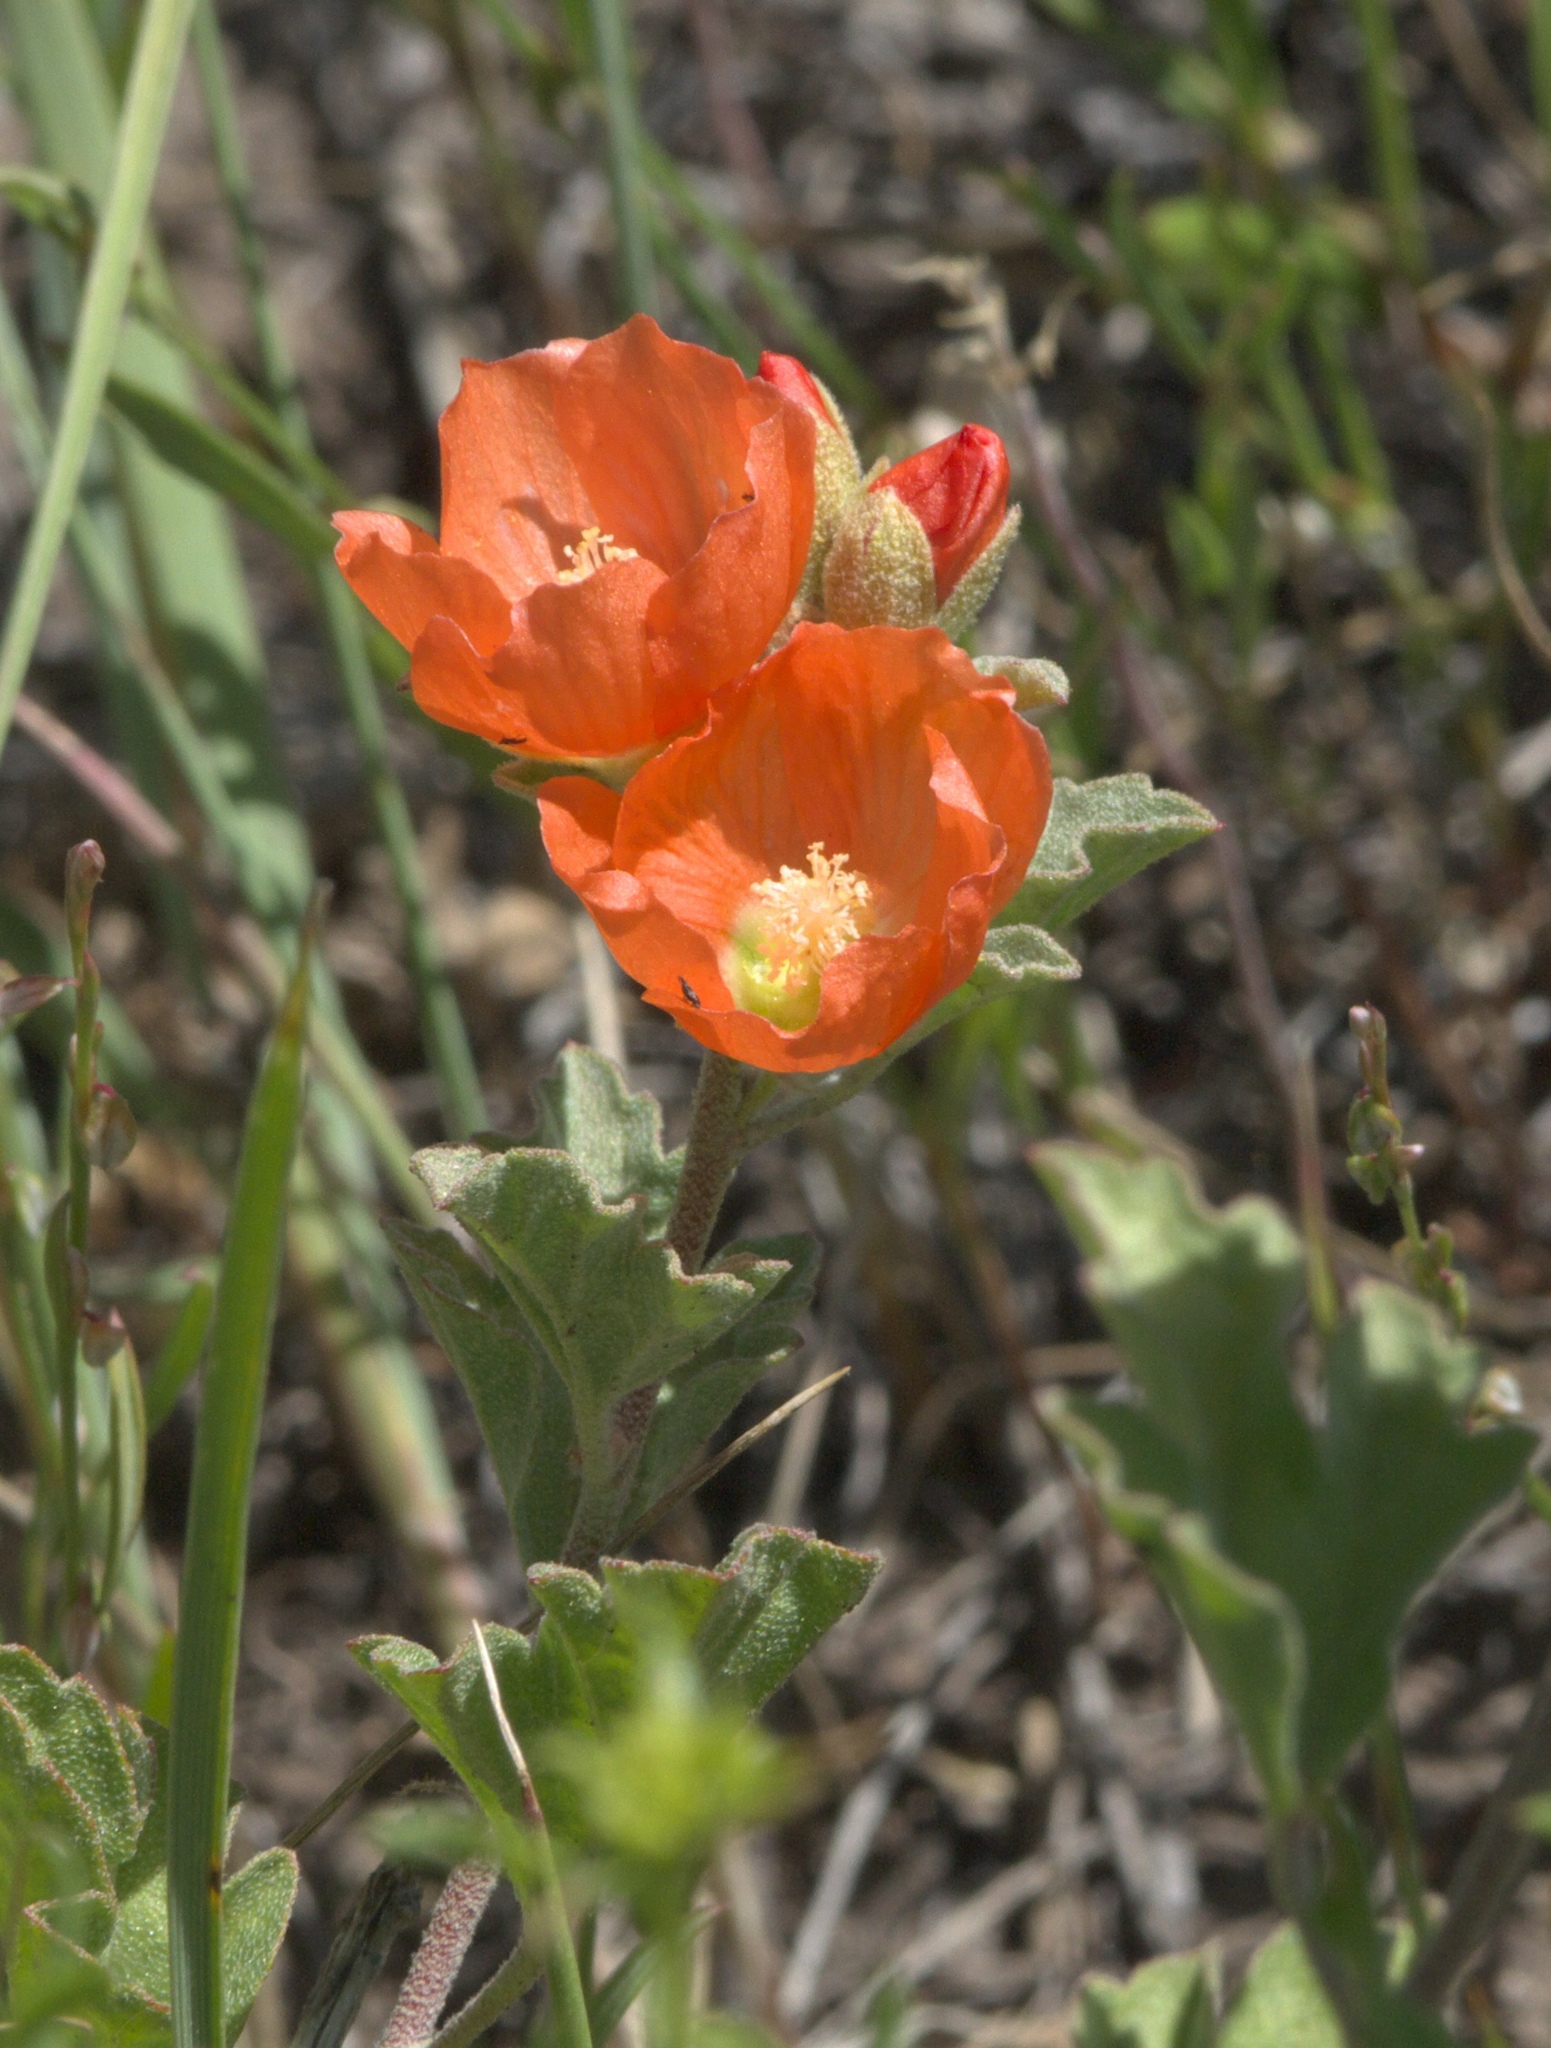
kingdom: Plantae
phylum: Tracheophyta
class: Magnoliopsida
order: Malvales
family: Malvaceae
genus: Sphaeralcea
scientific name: Sphaeralcea munroana
